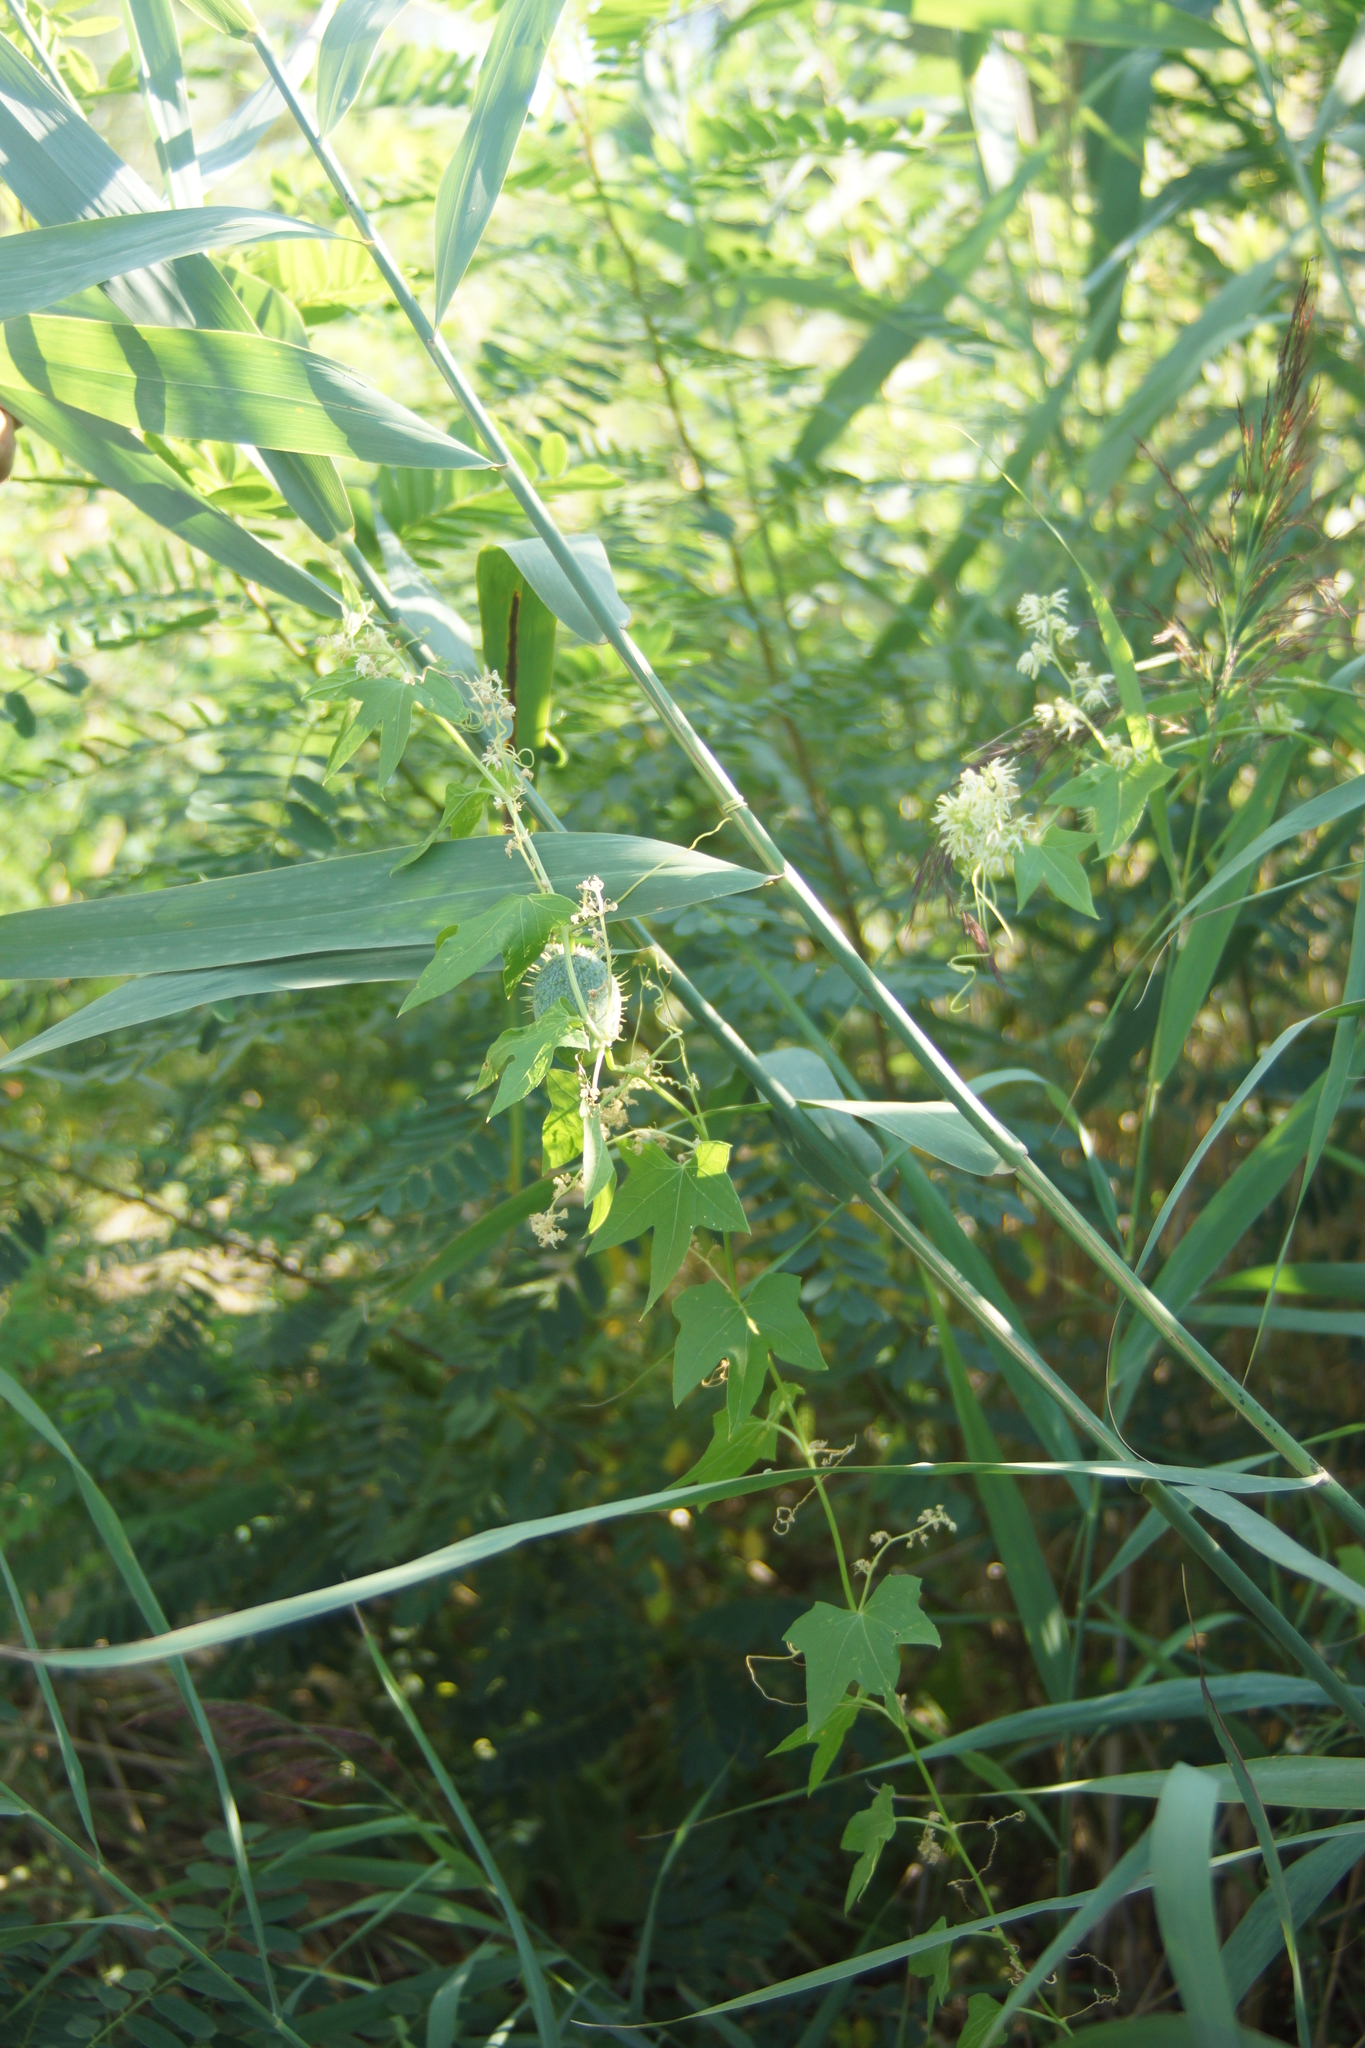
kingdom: Plantae
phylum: Tracheophyta
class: Magnoliopsida
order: Cucurbitales
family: Cucurbitaceae
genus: Echinocystis
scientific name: Echinocystis lobata
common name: Wild cucumber
